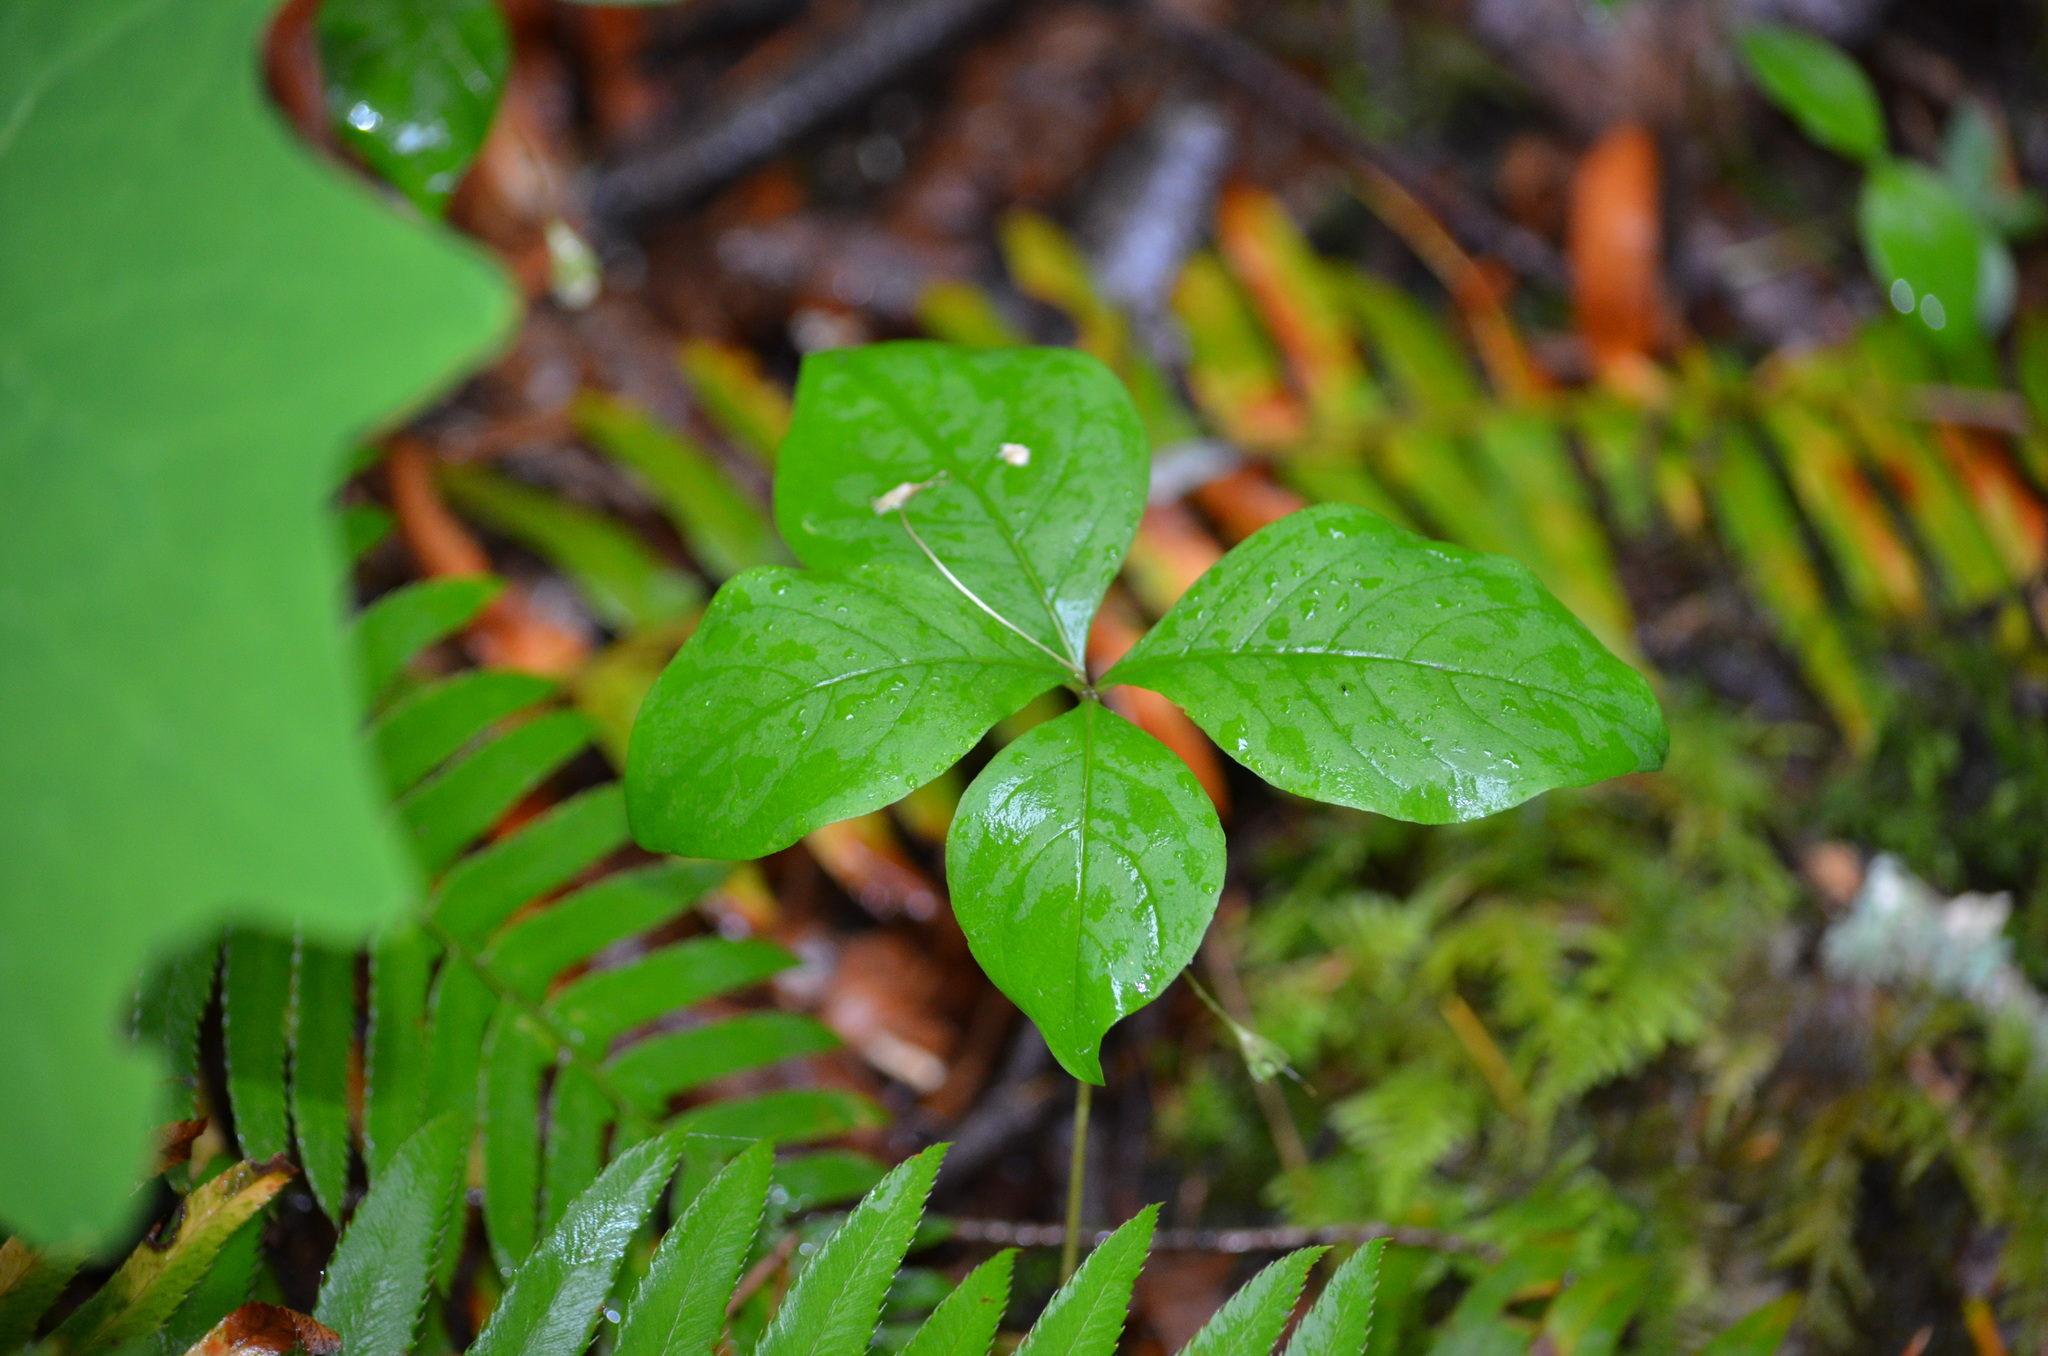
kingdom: Plantae
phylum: Tracheophyta
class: Magnoliopsida
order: Ericales
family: Primulaceae
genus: Lysimachia
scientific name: Lysimachia latifolia
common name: Pacific starflower
